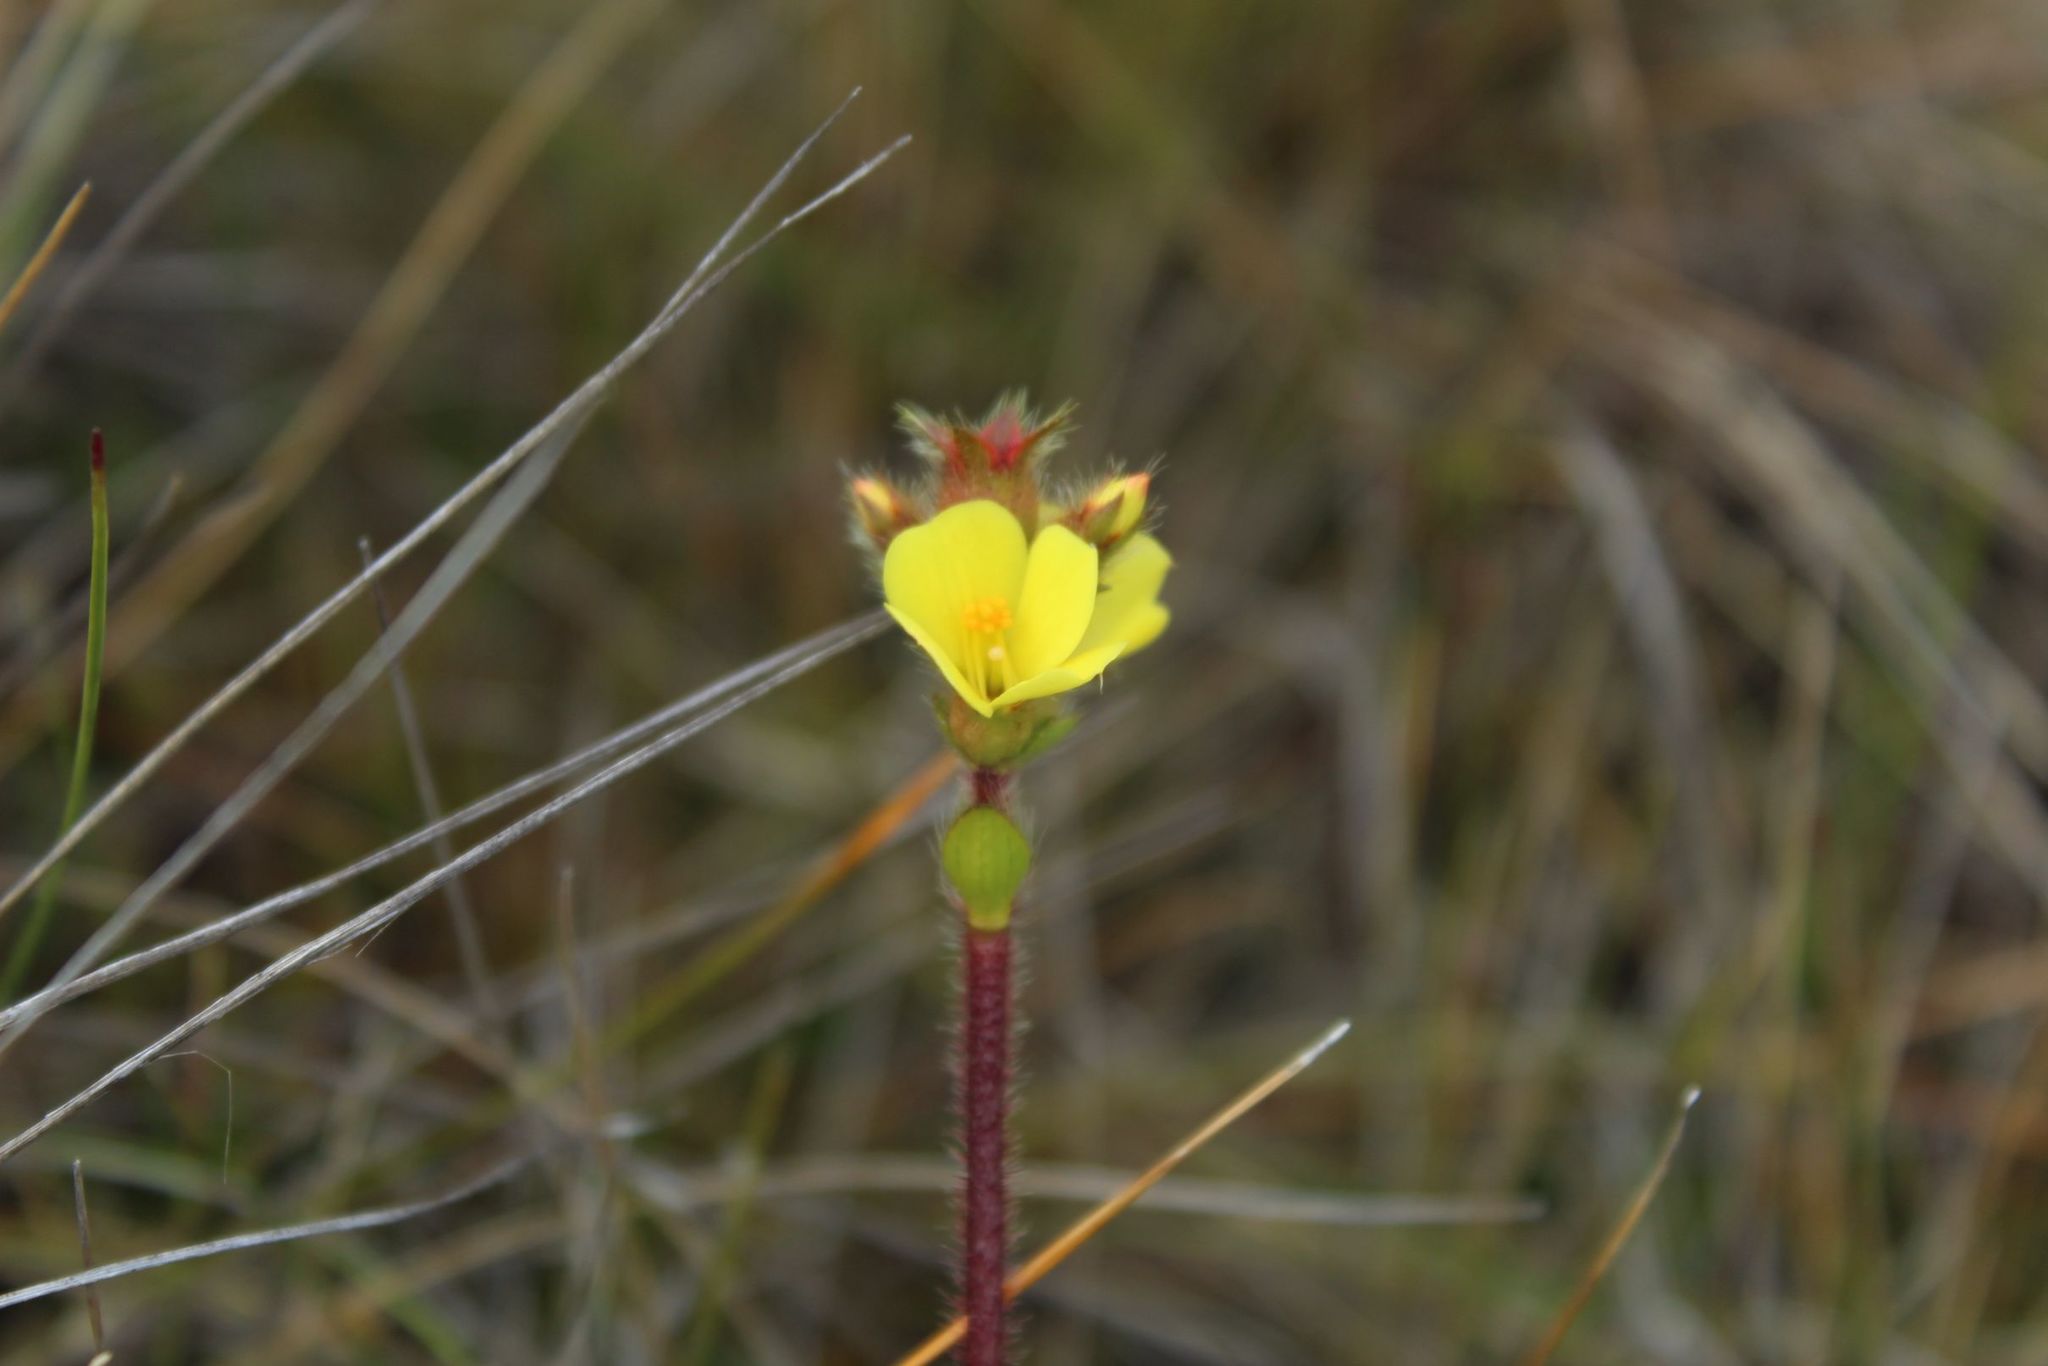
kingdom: Plantae
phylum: Tracheophyta
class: Magnoliopsida
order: Myrtales
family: Melastomataceae
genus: Castratella
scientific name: Castratella piloselloides
